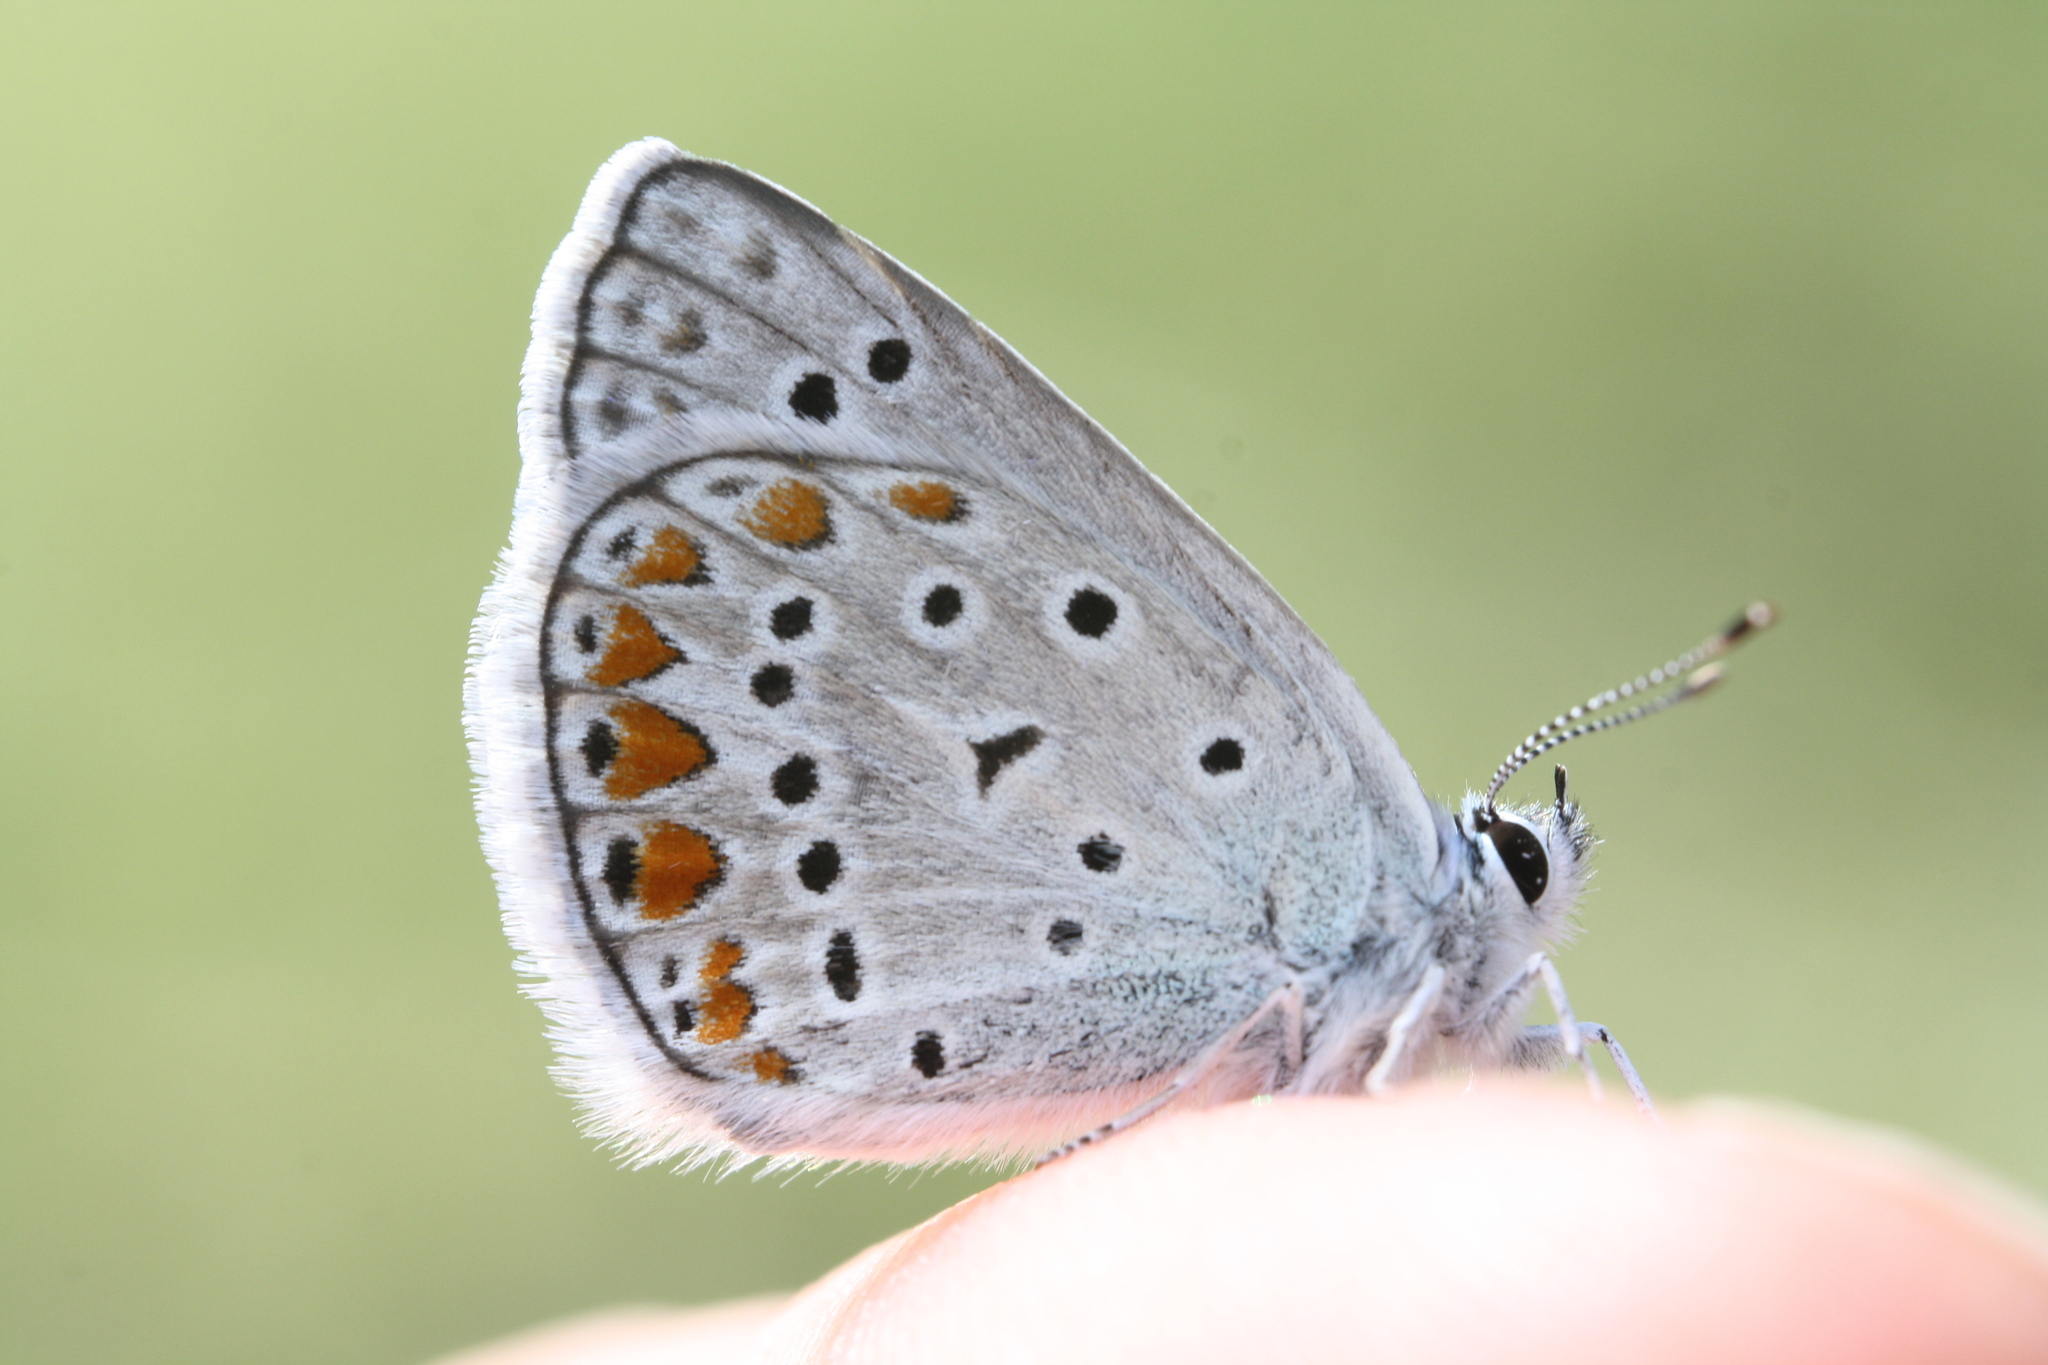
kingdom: Animalia
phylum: Arthropoda
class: Insecta
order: Lepidoptera
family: Lycaenidae
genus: Polyommatus
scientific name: Polyommatus icarus
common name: Common blue
